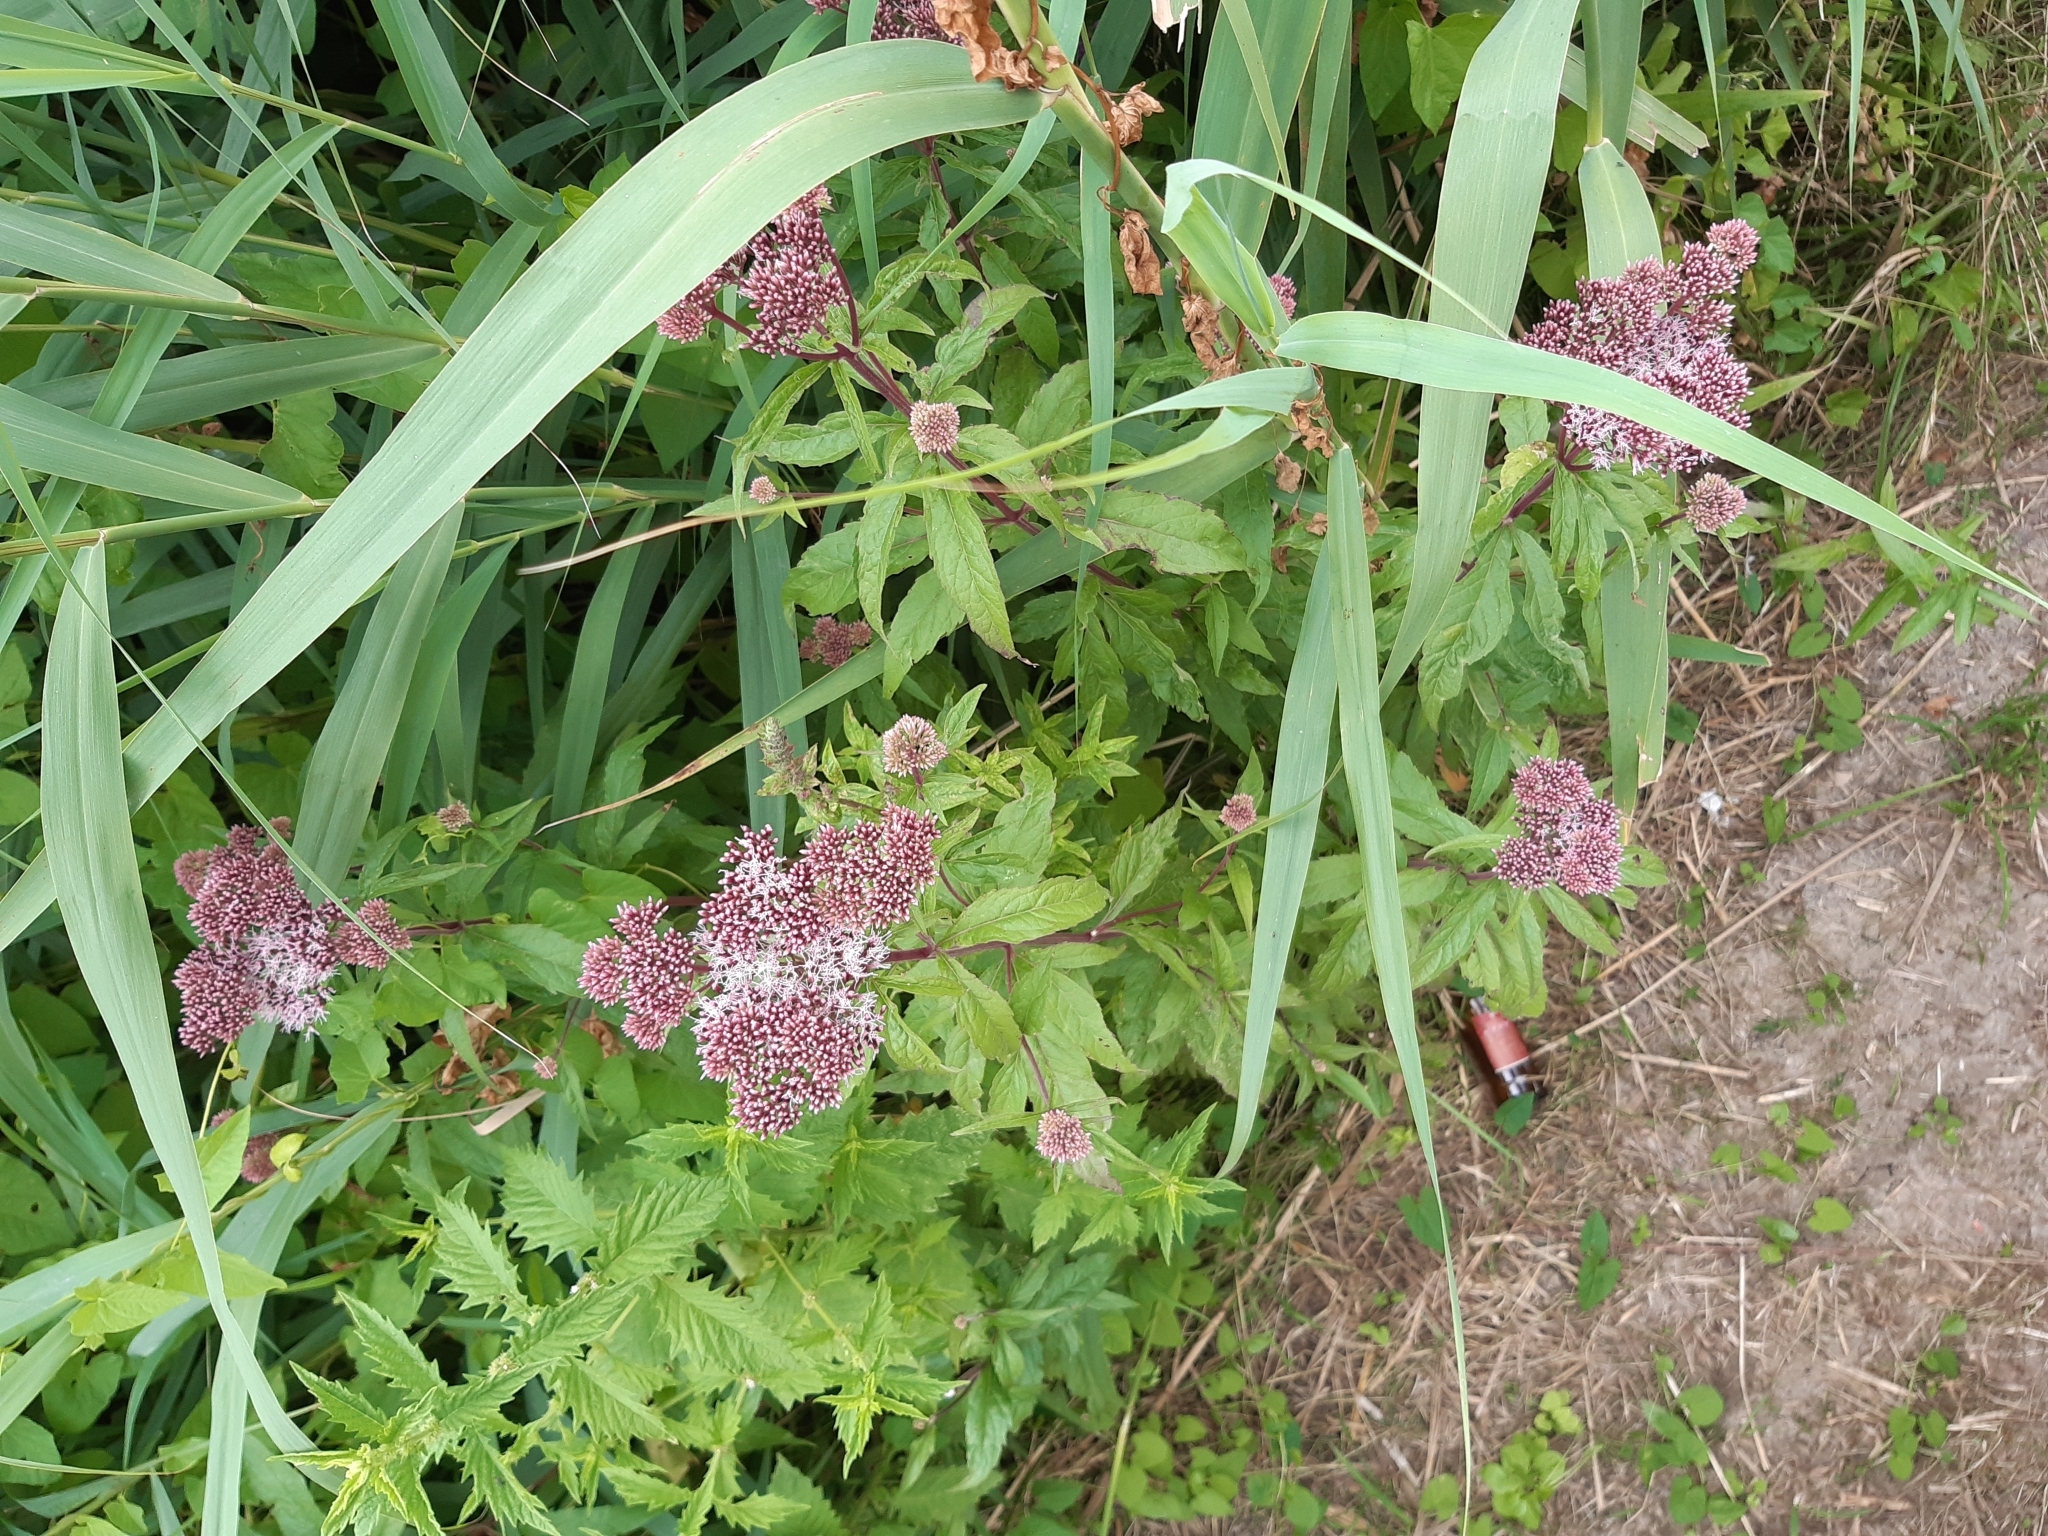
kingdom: Plantae
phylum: Tracheophyta
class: Magnoliopsida
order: Asterales
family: Asteraceae
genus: Eupatorium
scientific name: Eupatorium cannabinum
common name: Hemp-agrimony
